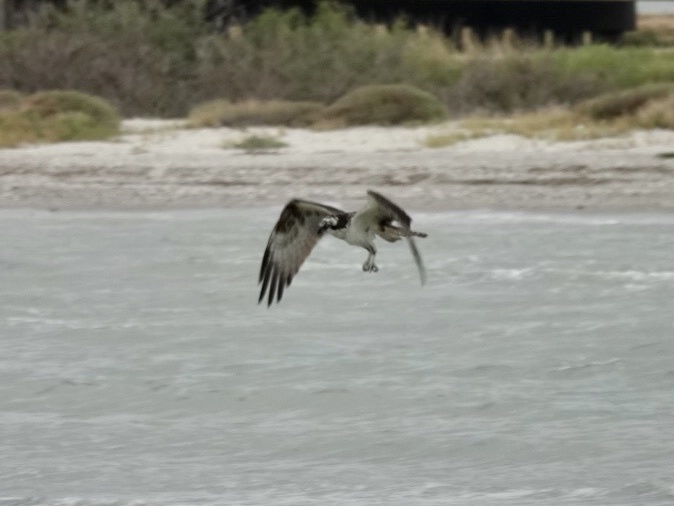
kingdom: Animalia
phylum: Chordata
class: Aves
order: Accipitriformes
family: Pandionidae
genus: Pandion
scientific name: Pandion haliaetus
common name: Osprey
